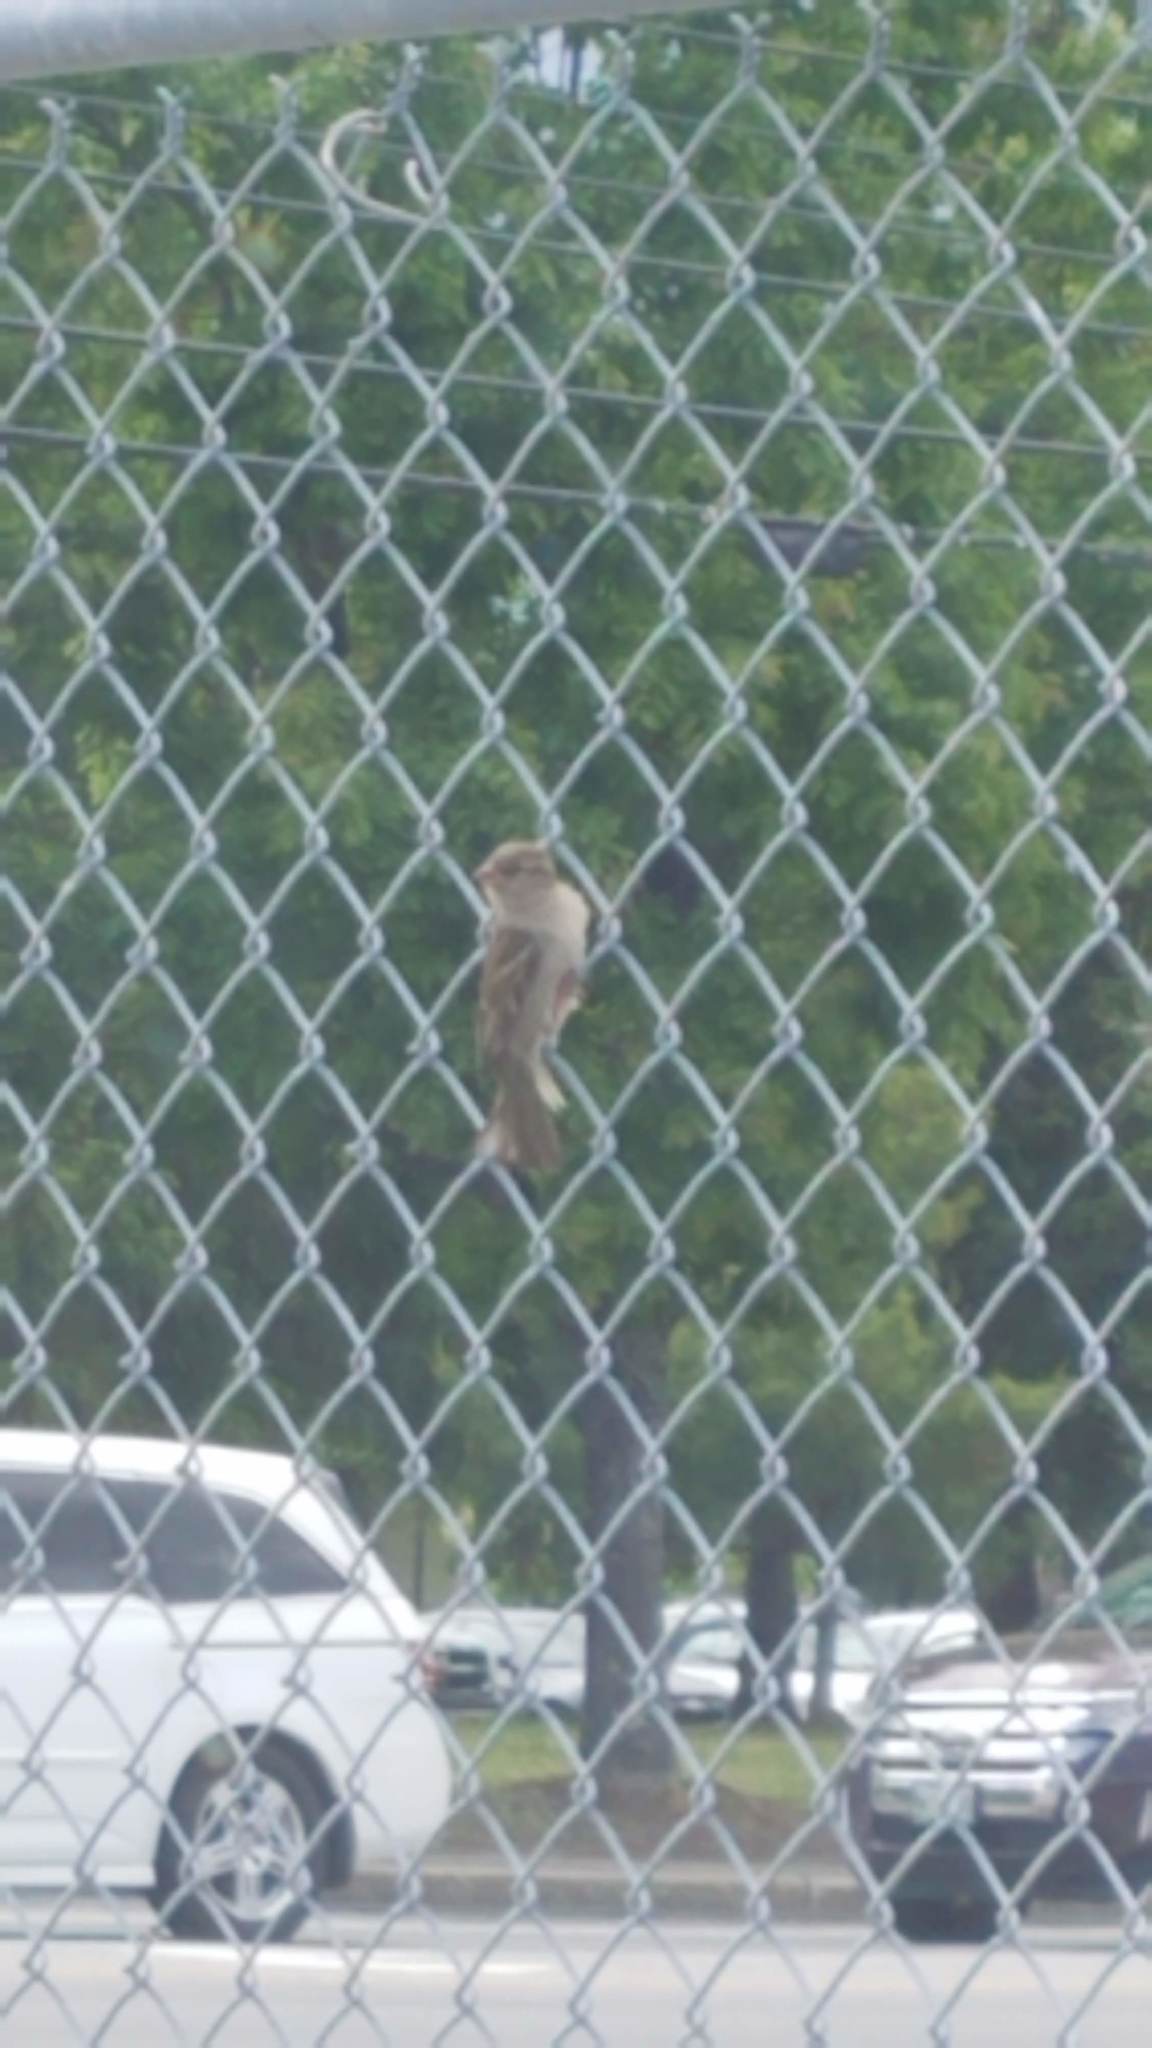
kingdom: Animalia
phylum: Chordata
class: Aves
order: Passeriformes
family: Passeridae
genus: Passer
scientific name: Passer domesticus
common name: House sparrow
